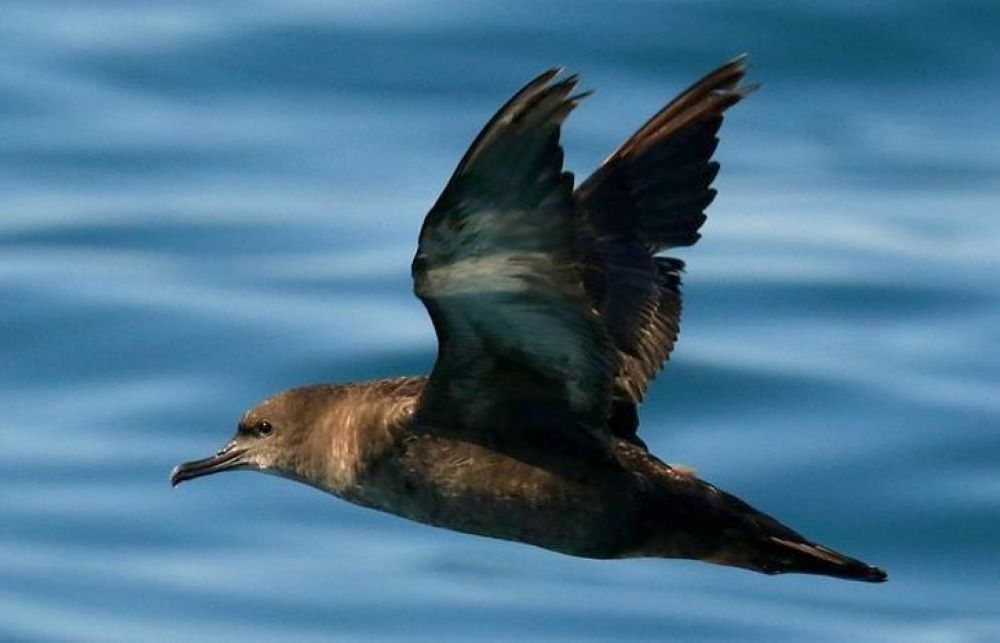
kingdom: Animalia
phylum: Chordata
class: Aves
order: Procellariiformes
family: Procellariidae
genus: Puffinus
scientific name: Puffinus griseus
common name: Sooty shearwater
